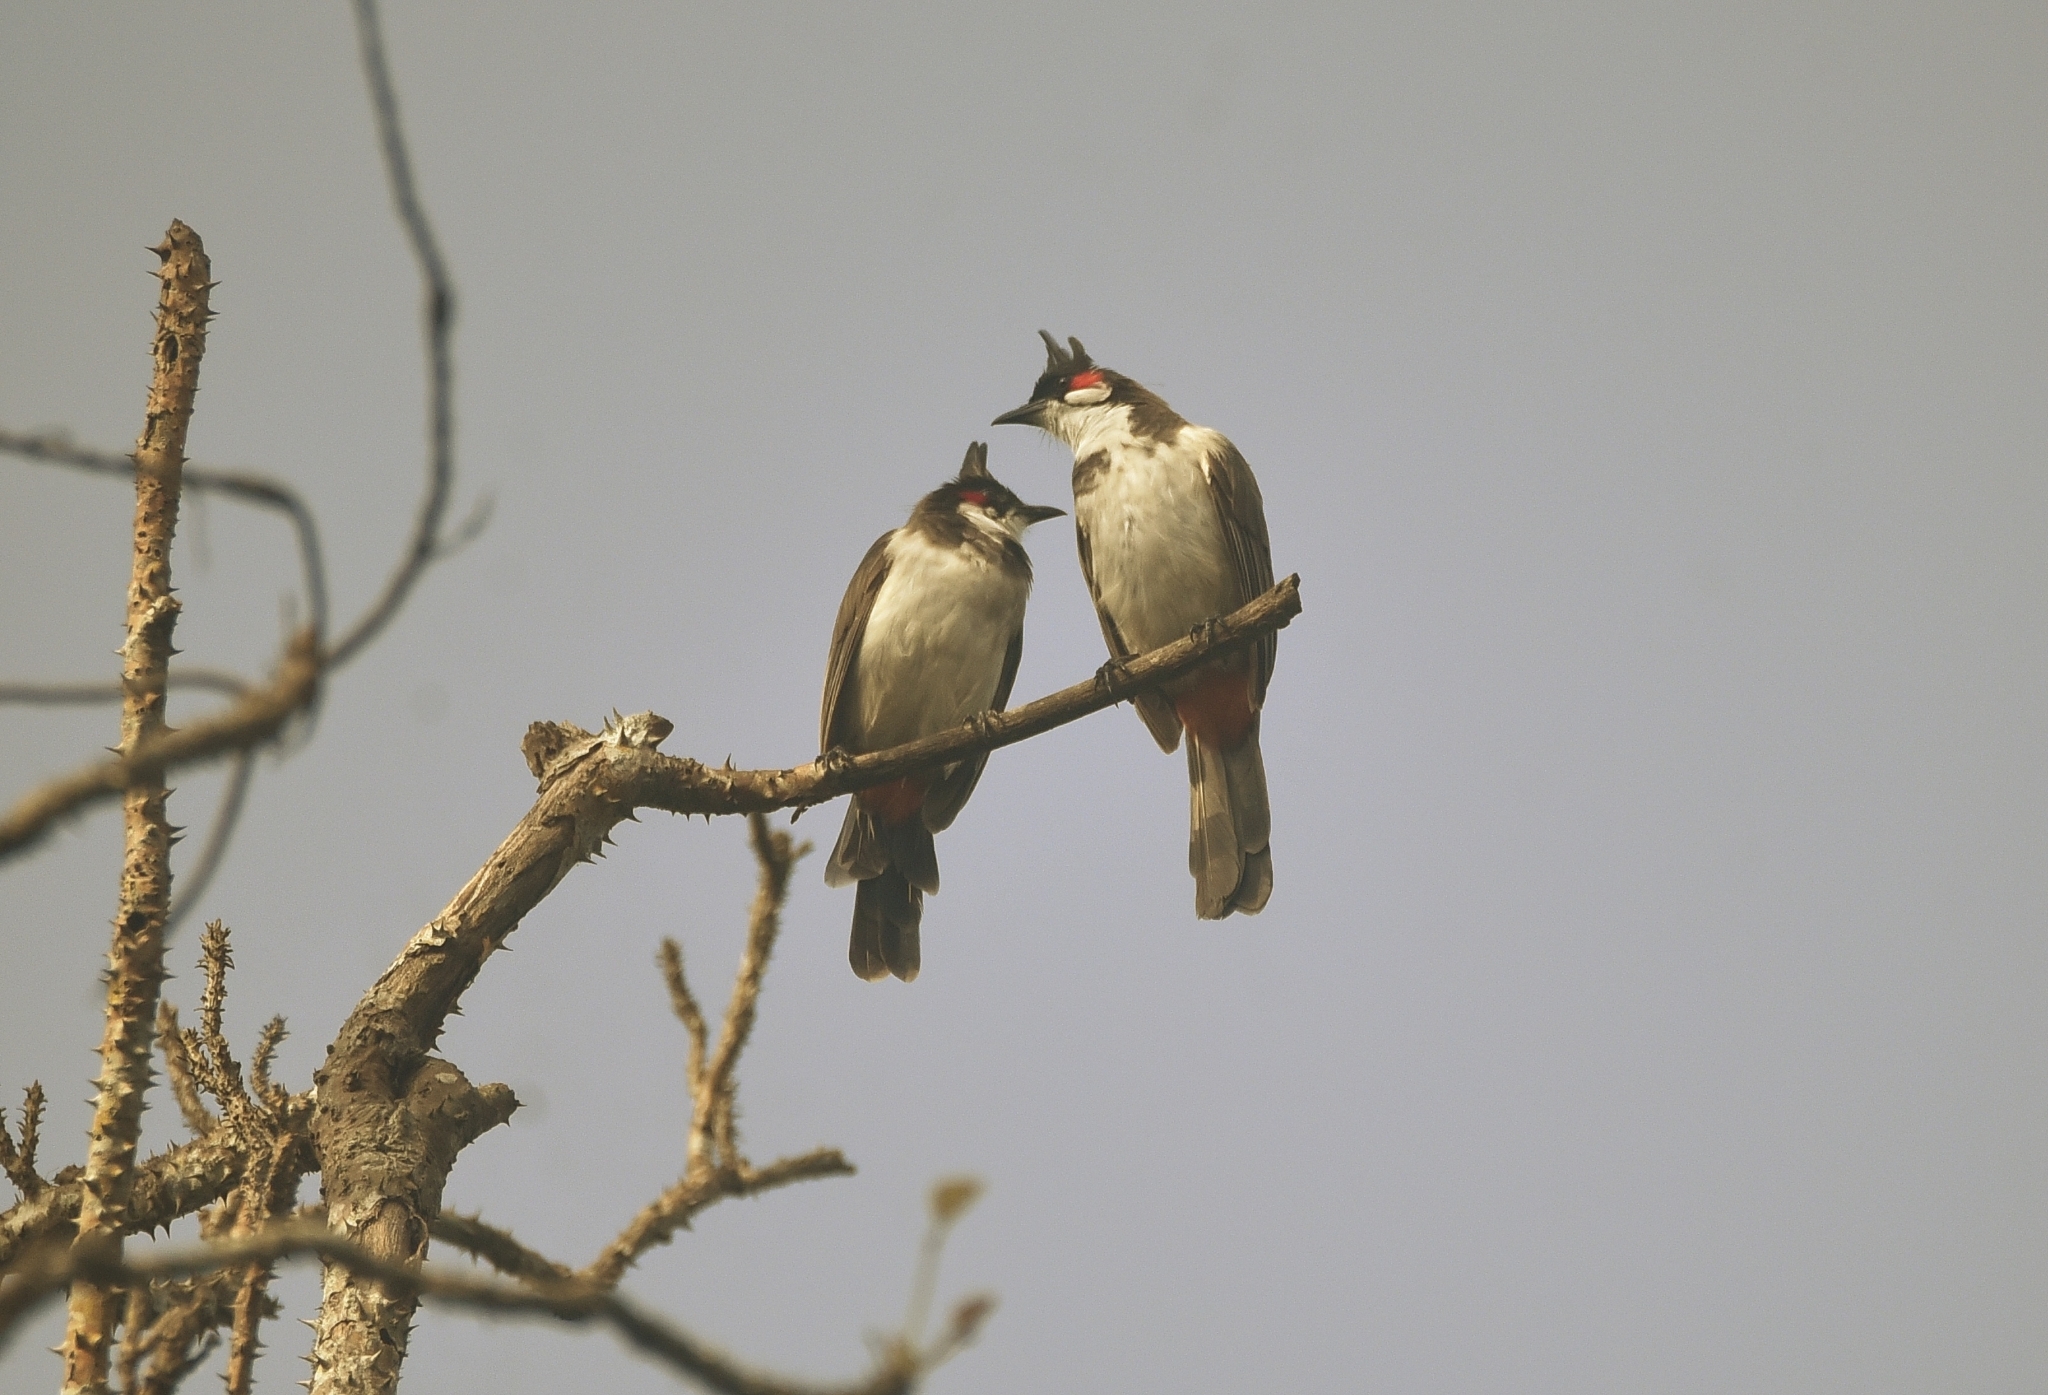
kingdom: Animalia
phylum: Chordata
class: Aves
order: Passeriformes
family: Pycnonotidae
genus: Pycnonotus
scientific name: Pycnonotus jocosus
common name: Red-whiskered bulbul
